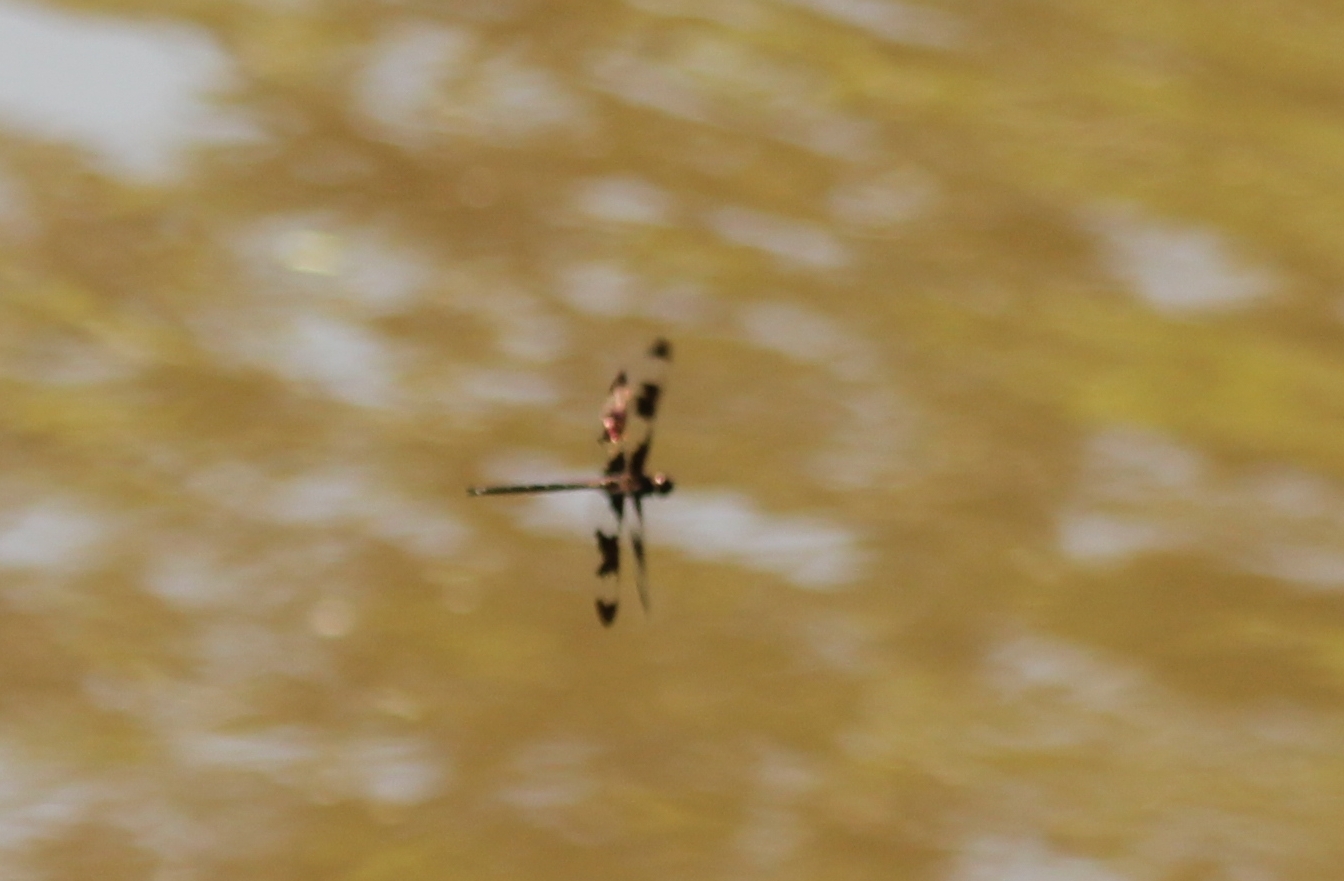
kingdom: Animalia
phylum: Arthropoda
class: Insecta
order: Odonata
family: Corduliidae
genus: Epitheca
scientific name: Epitheca princeps
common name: Prince baskettail
